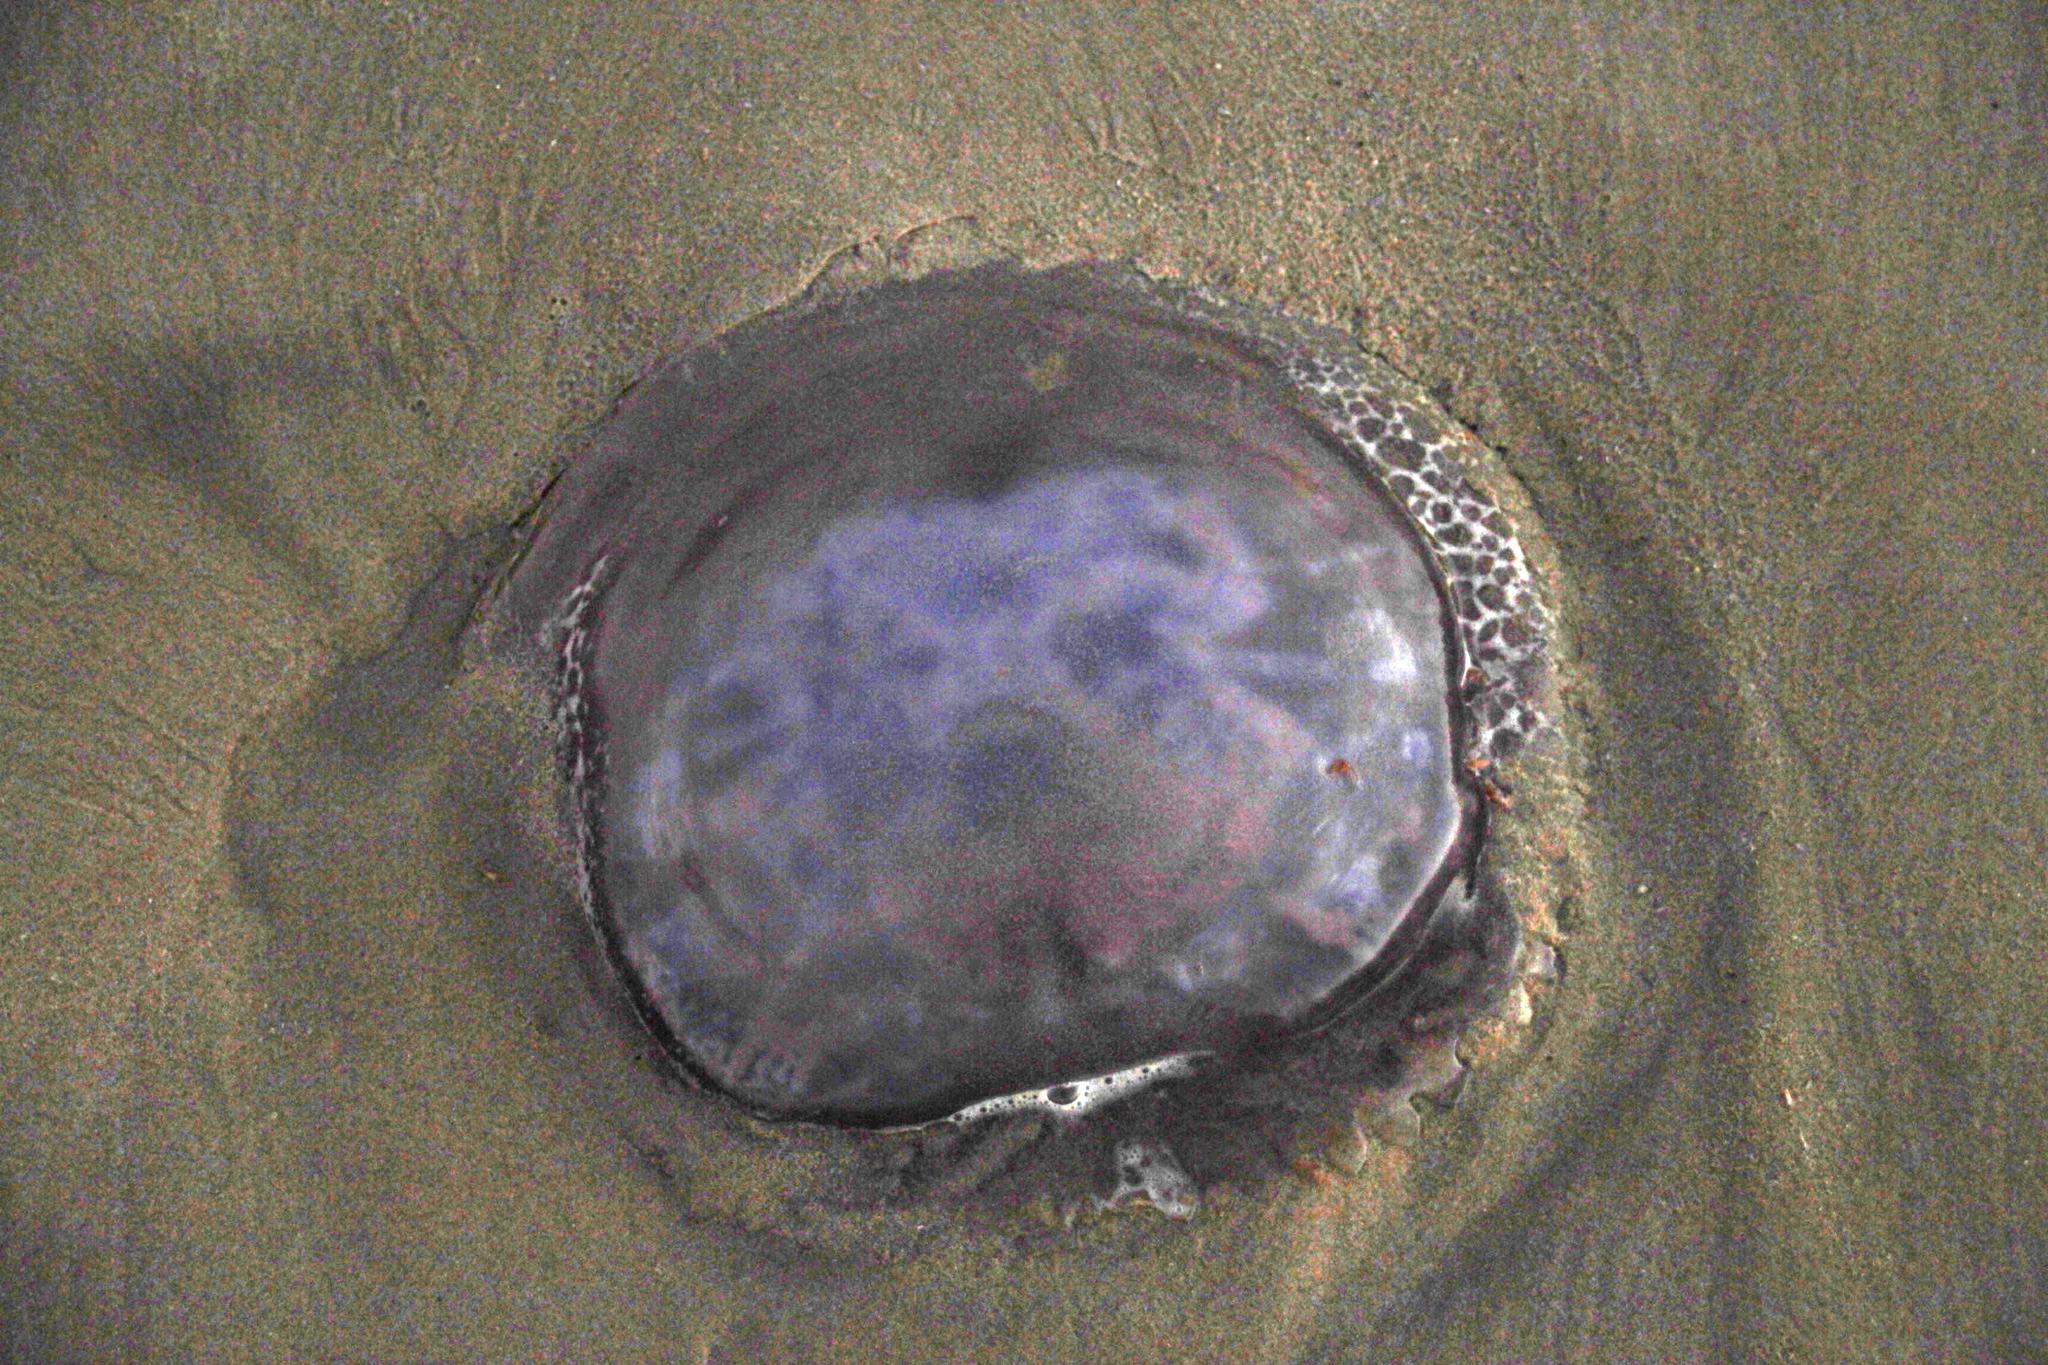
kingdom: Animalia
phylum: Cnidaria
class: Scyphozoa
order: Rhizostomeae
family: Rhizostomatidae
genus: Eupilema
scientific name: Eupilema inexpectata
